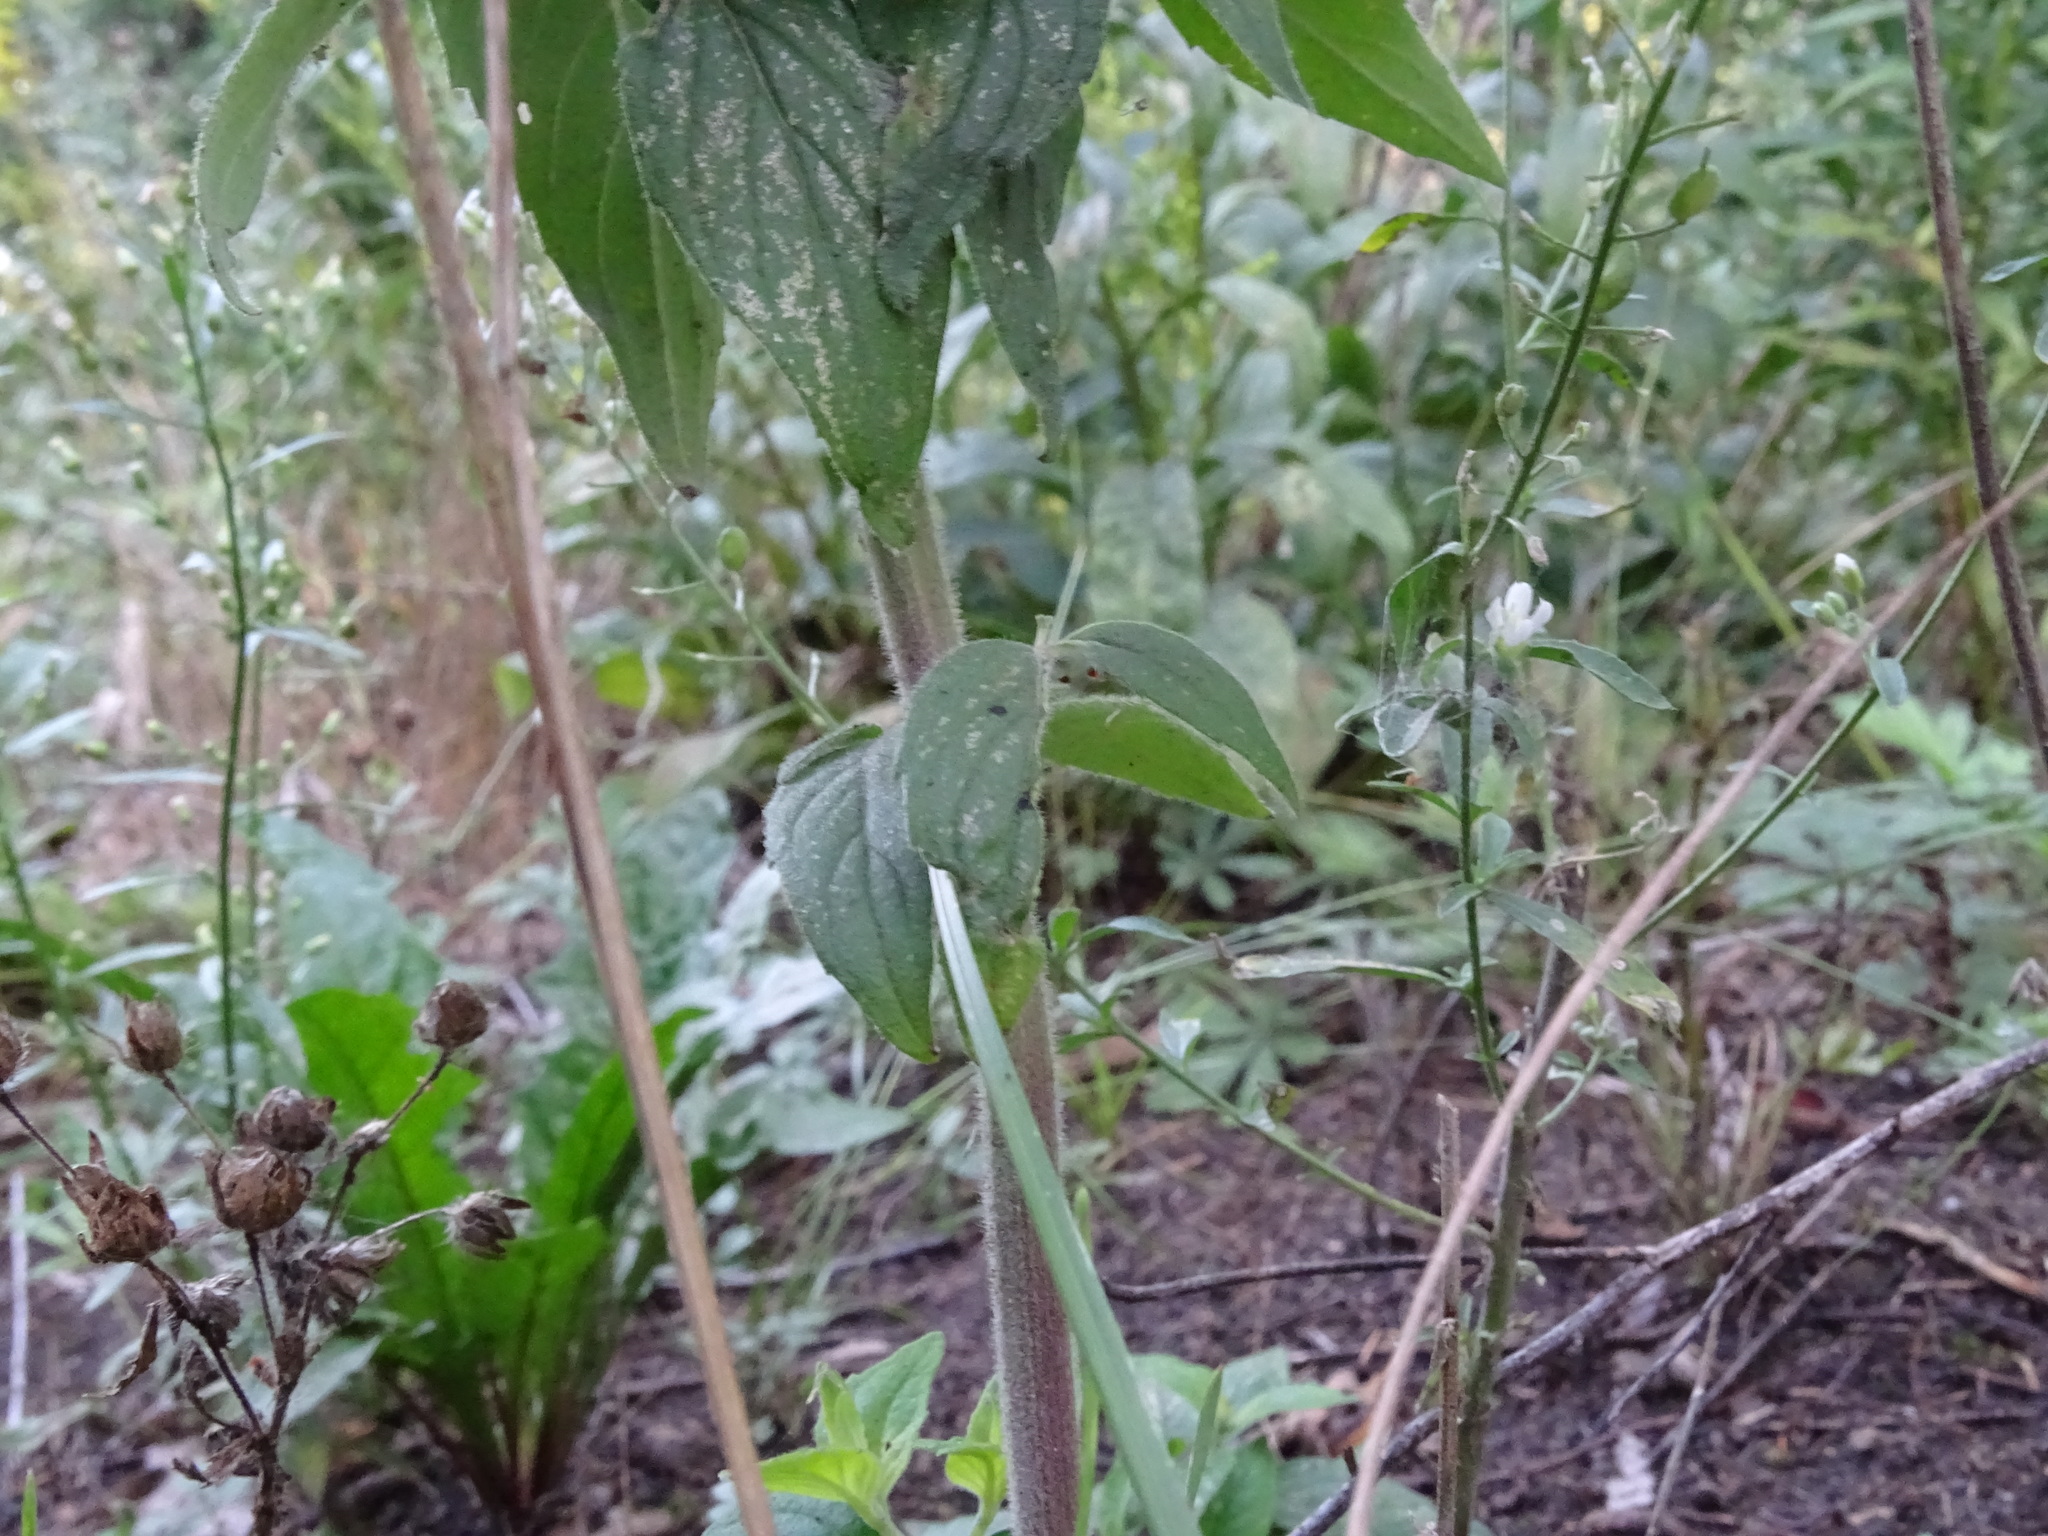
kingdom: Plantae
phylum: Tracheophyta
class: Magnoliopsida
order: Lamiales
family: Lamiaceae
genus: Pycnanthemum
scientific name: Pycnanthemum incanum
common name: Hoary mountain-mint
